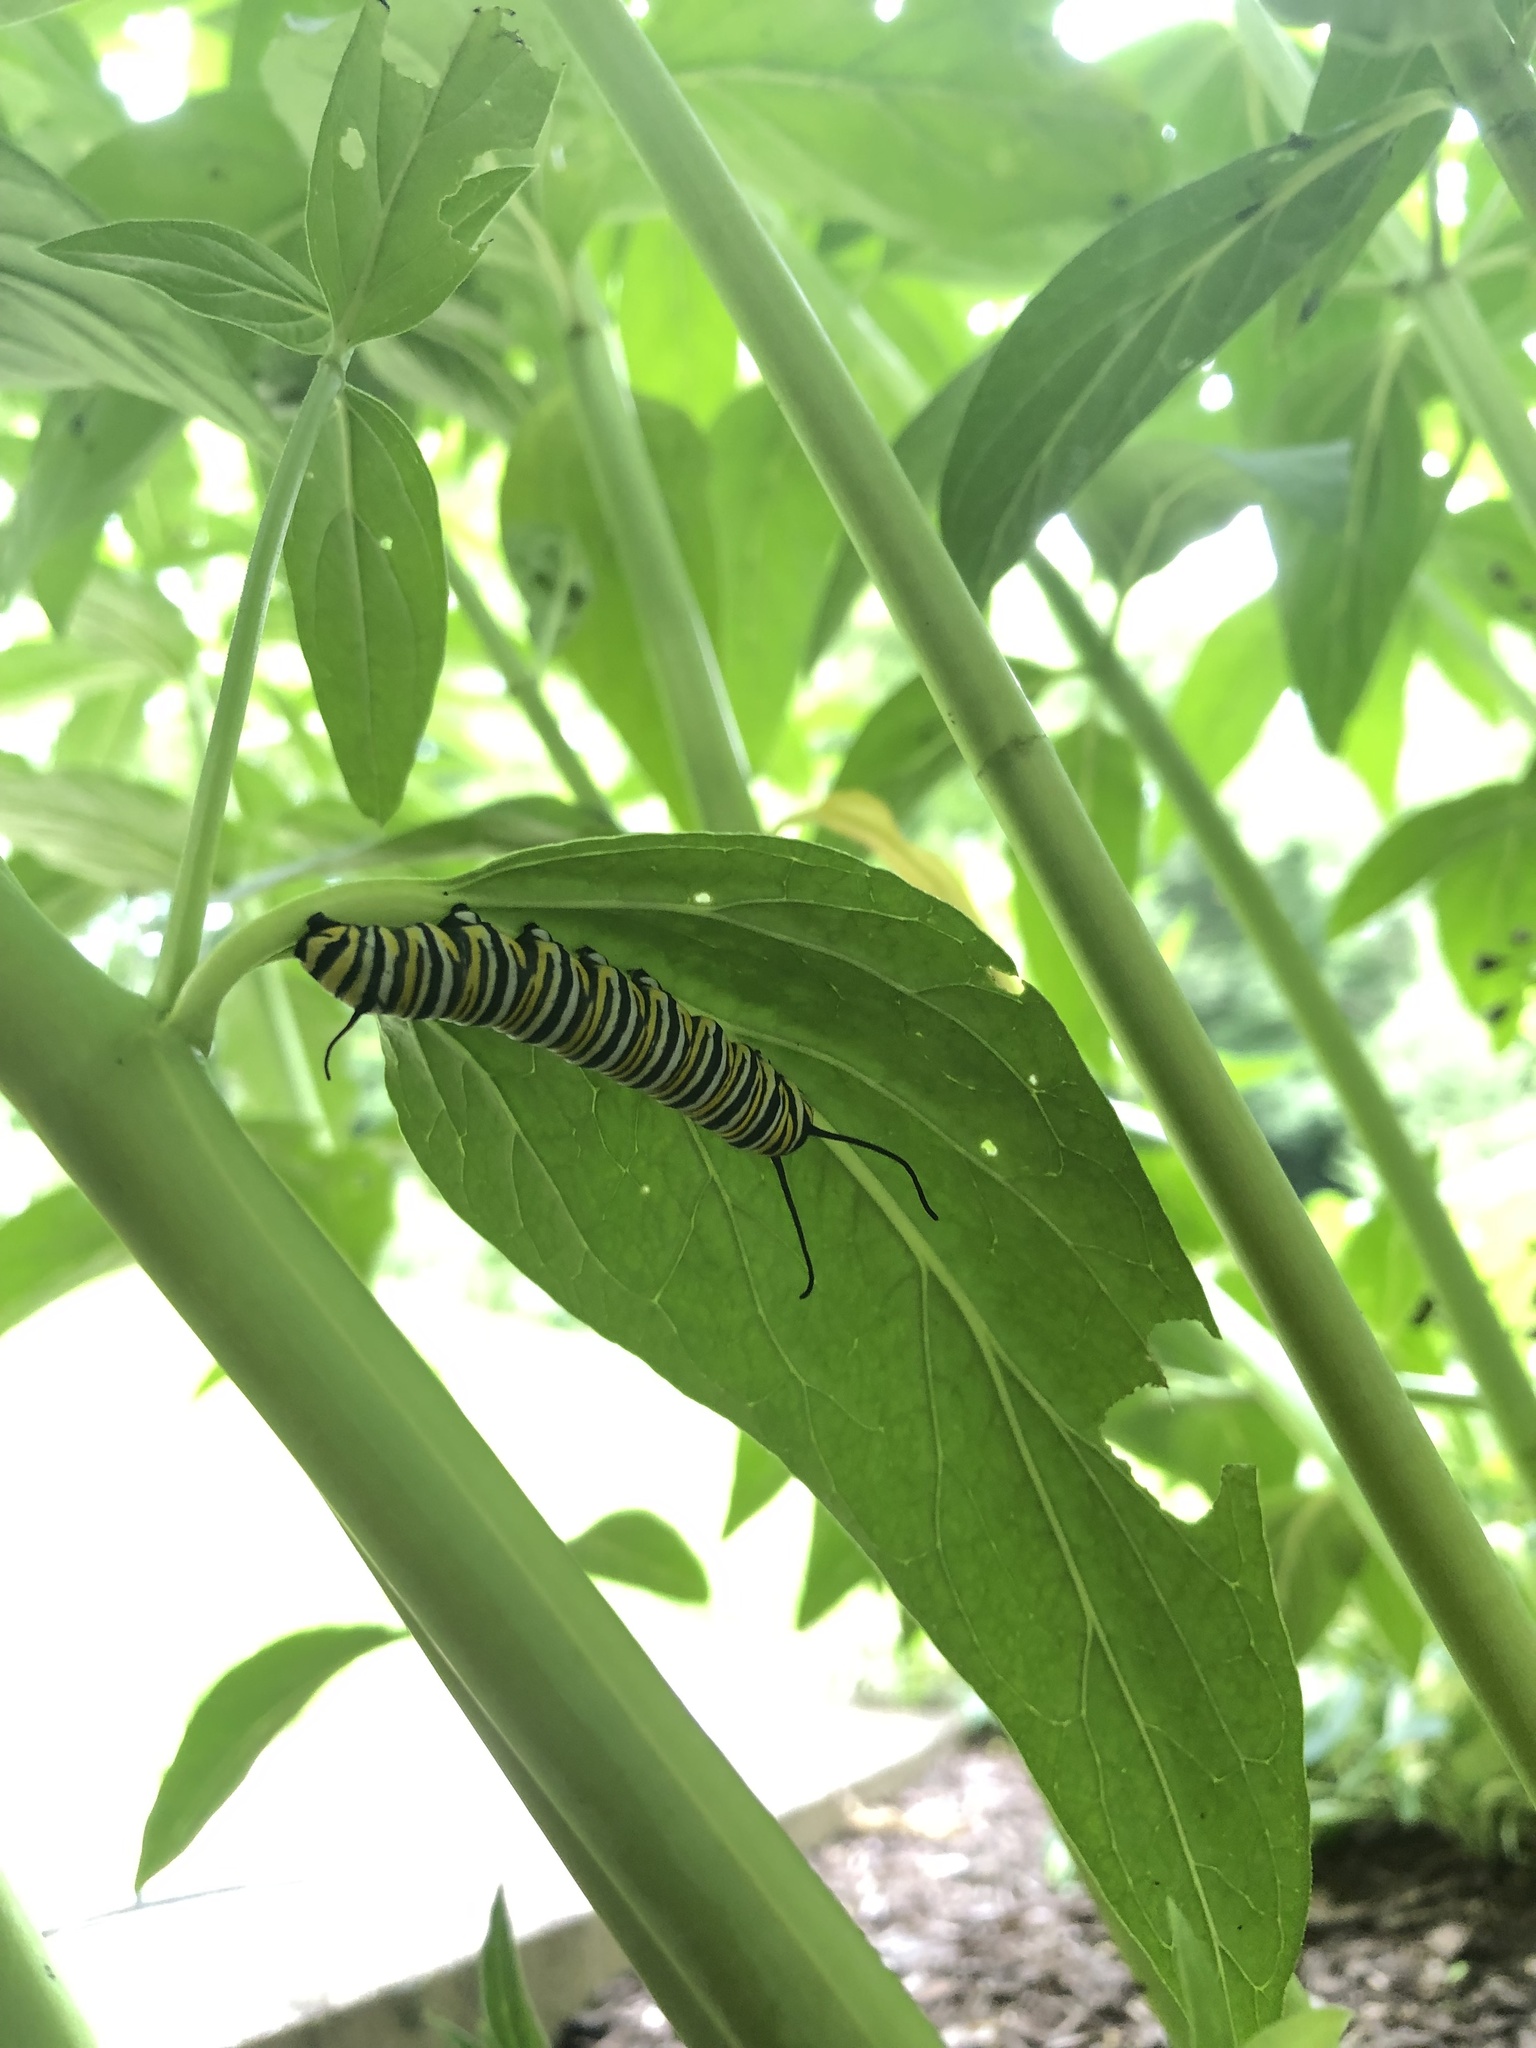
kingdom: Animalia
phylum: Arthropoda
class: Insecta
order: Lepidoptera
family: Nymphalidae
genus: Danaus
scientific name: Danaus plexippus
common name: Monarch
